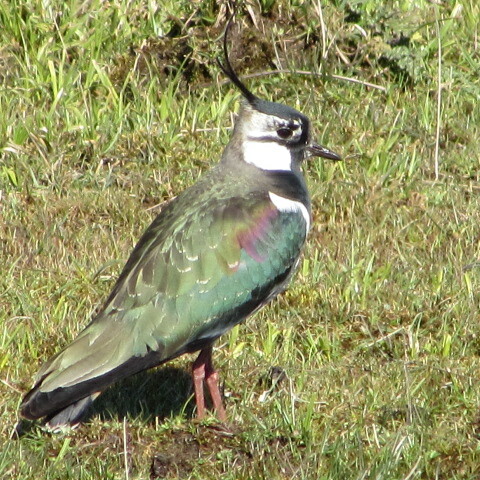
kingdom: Animalia
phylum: Chordata
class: Aves
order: Charadriiformes
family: Charadriidae
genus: Vanellus
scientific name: Vanellus vanellus
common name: Northern lapwing
